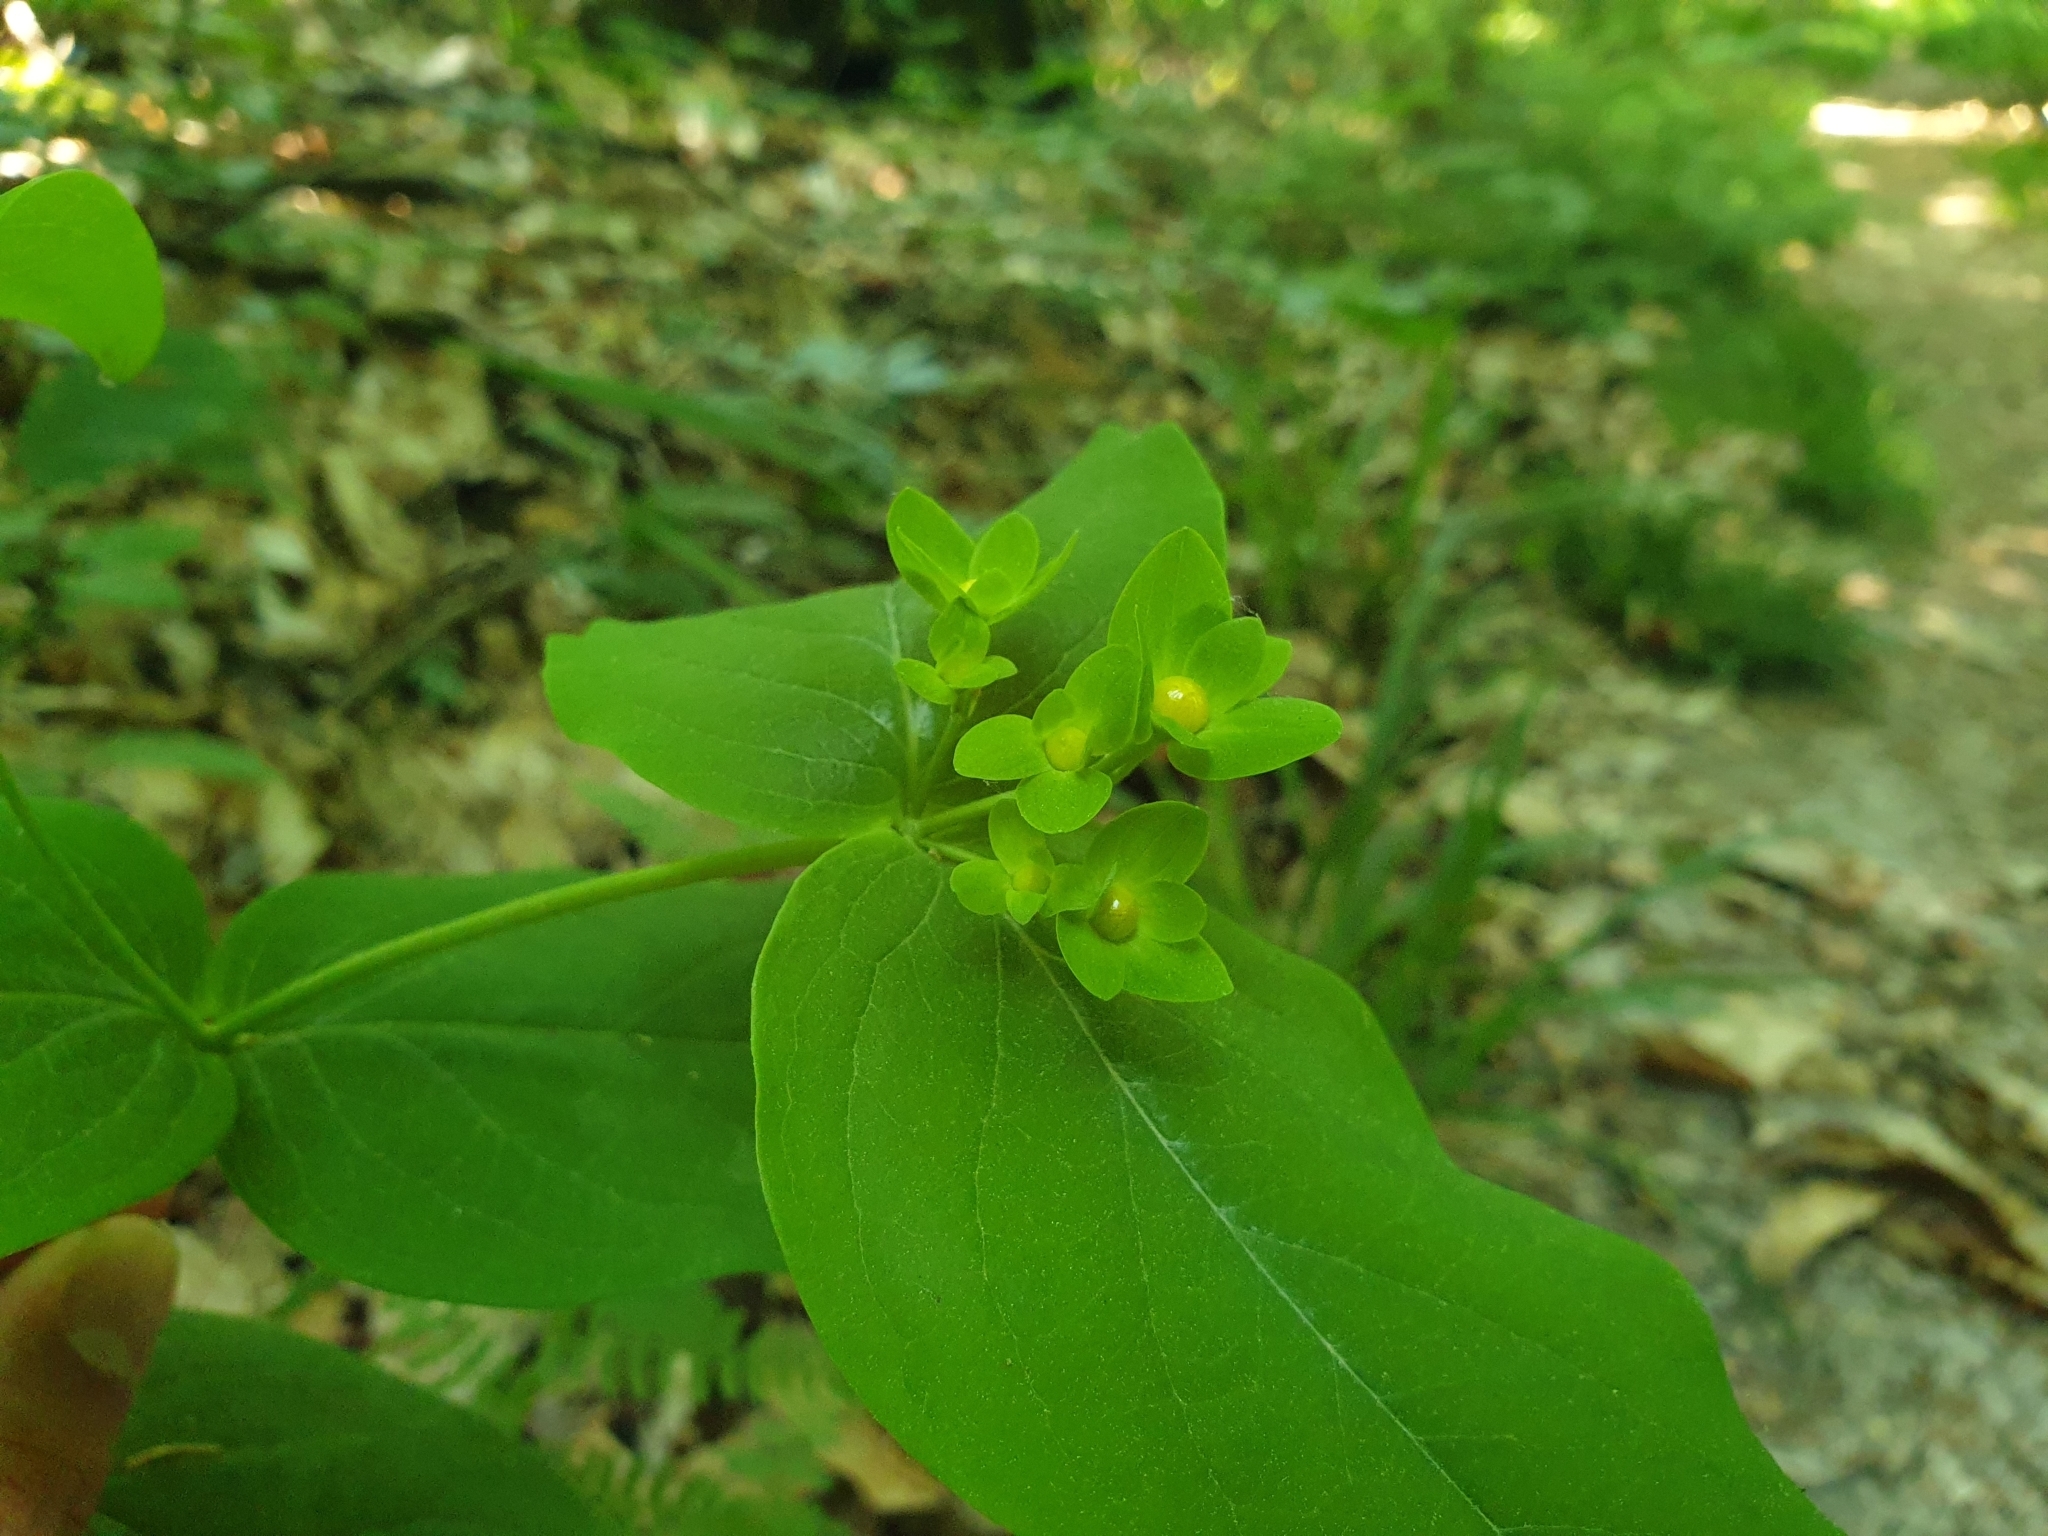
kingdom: Plantae
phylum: Tracheophyta
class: Magnoliopsida
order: Malpighiales
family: Hypericaceae
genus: Hypericum
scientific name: Hypericum androsaemum
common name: Sweet-amber
